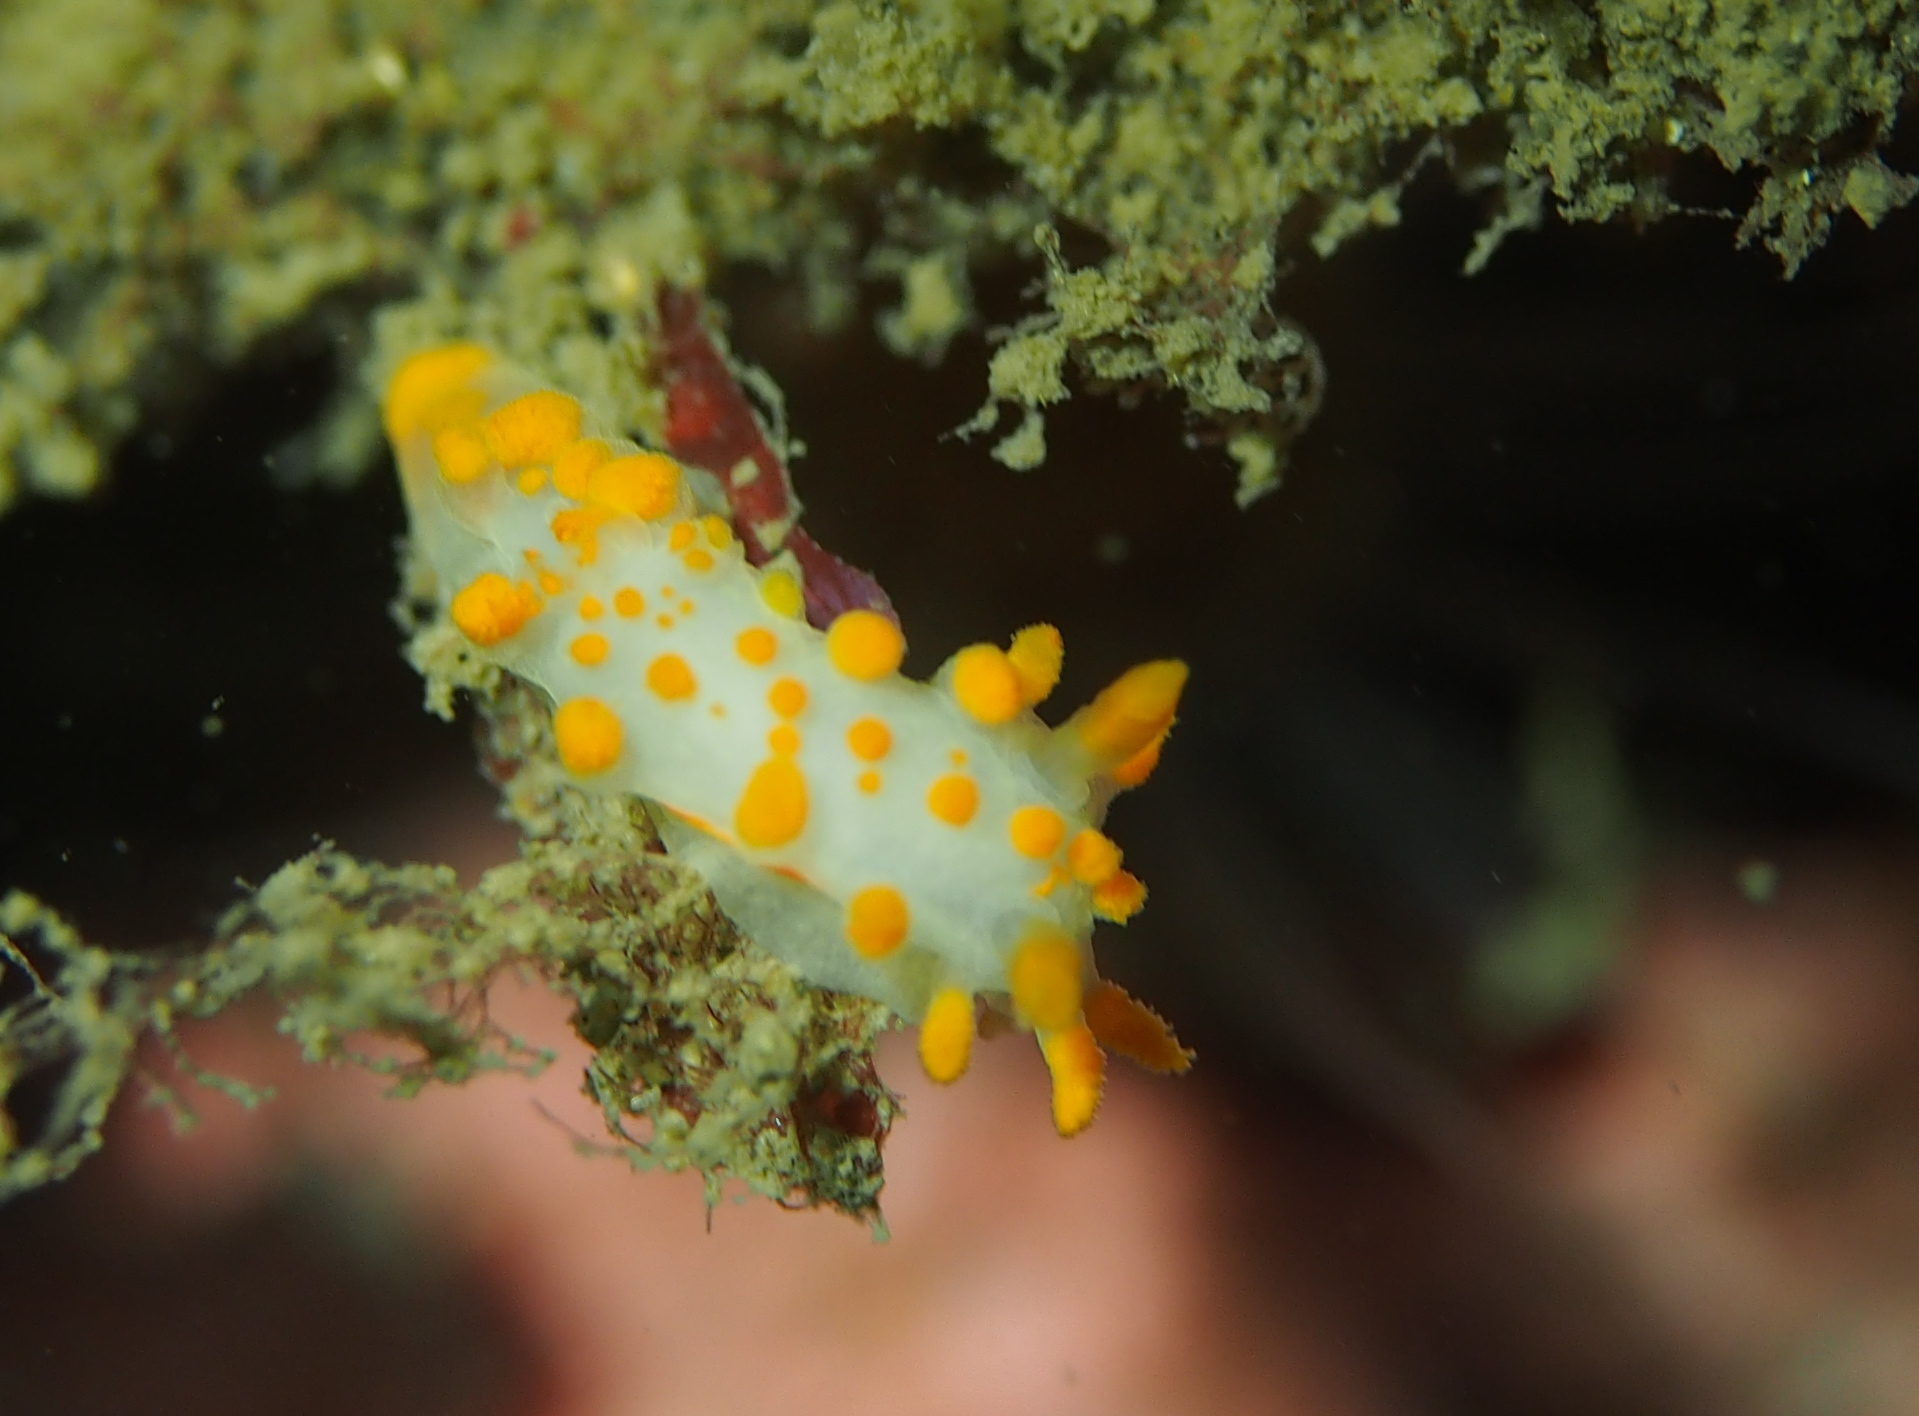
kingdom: Animalia
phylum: Mollusca
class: Gastropoda
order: Nudibranchia
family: Polyceridae
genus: Limacia
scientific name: Limacia clavigera
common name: Orange-clubbed sea slug
